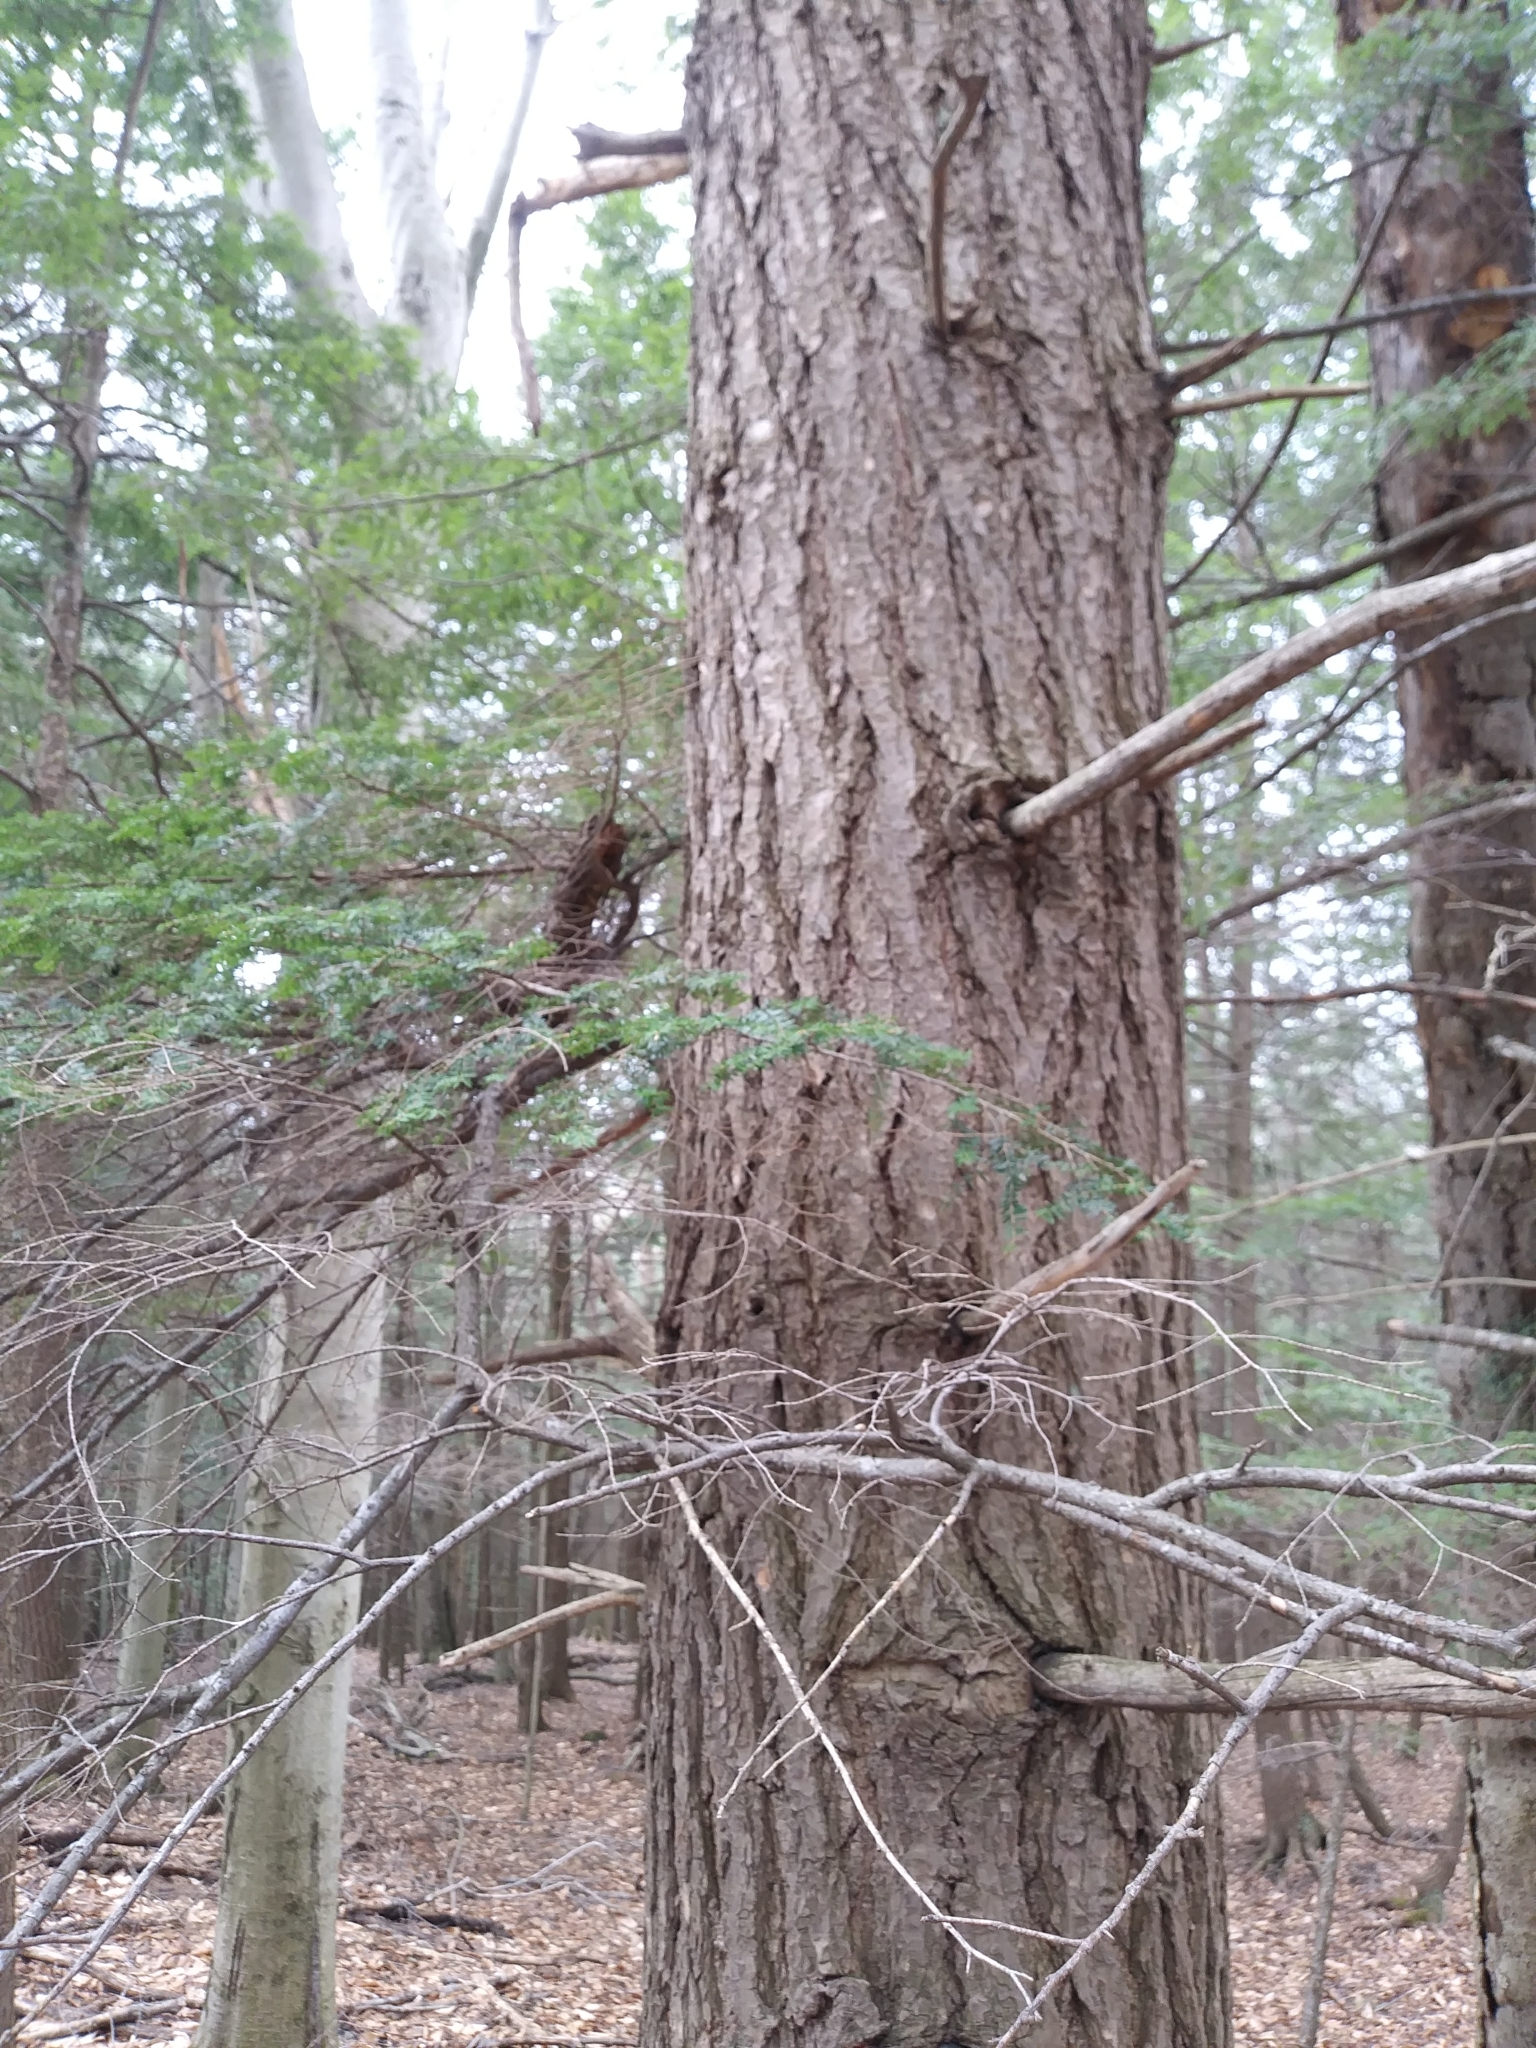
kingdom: Plantae
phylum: Tracheophyta
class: Pinopsida
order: Pinales
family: Pinaceae
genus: Tsuga
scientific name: Tsuga canadensis
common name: Eastern hemlock
